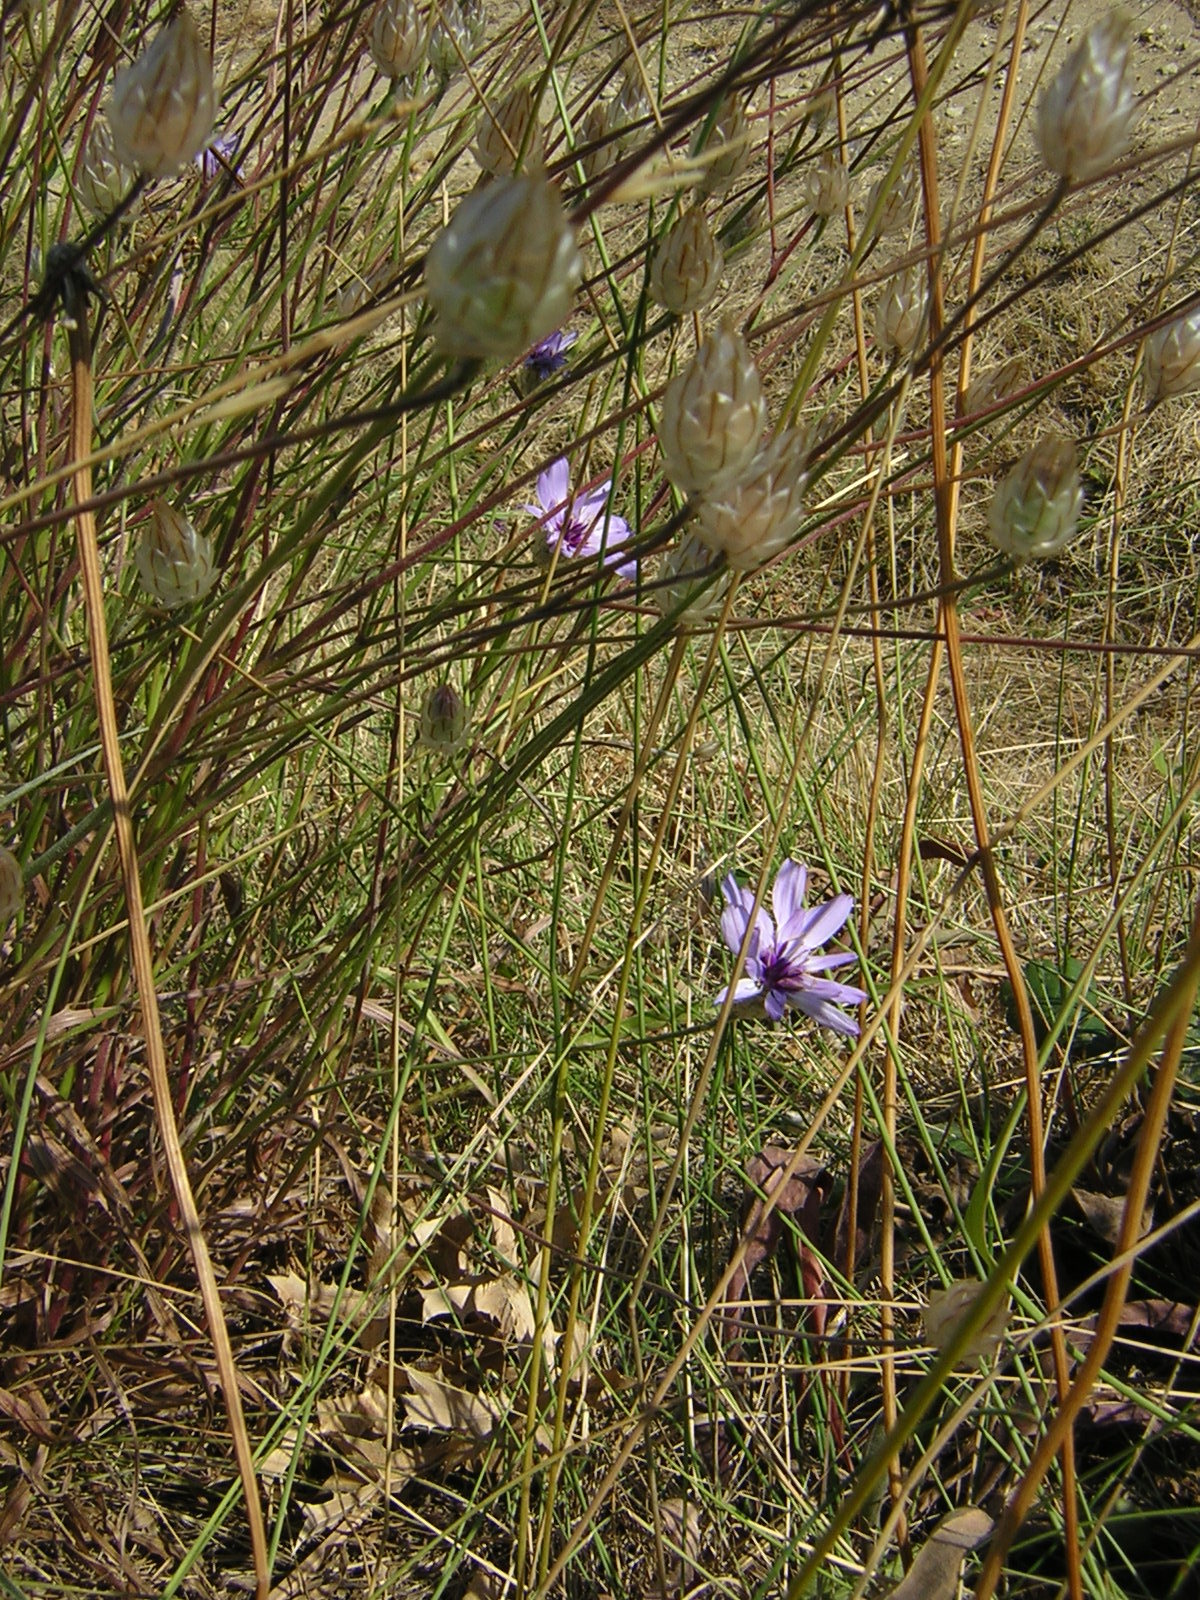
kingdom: Plantae
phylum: Tracheophyta
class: Magnoliopsida
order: Asterales
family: Asteraceae
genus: Catananche
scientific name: Catananche caerulea
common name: Blue cupidone
